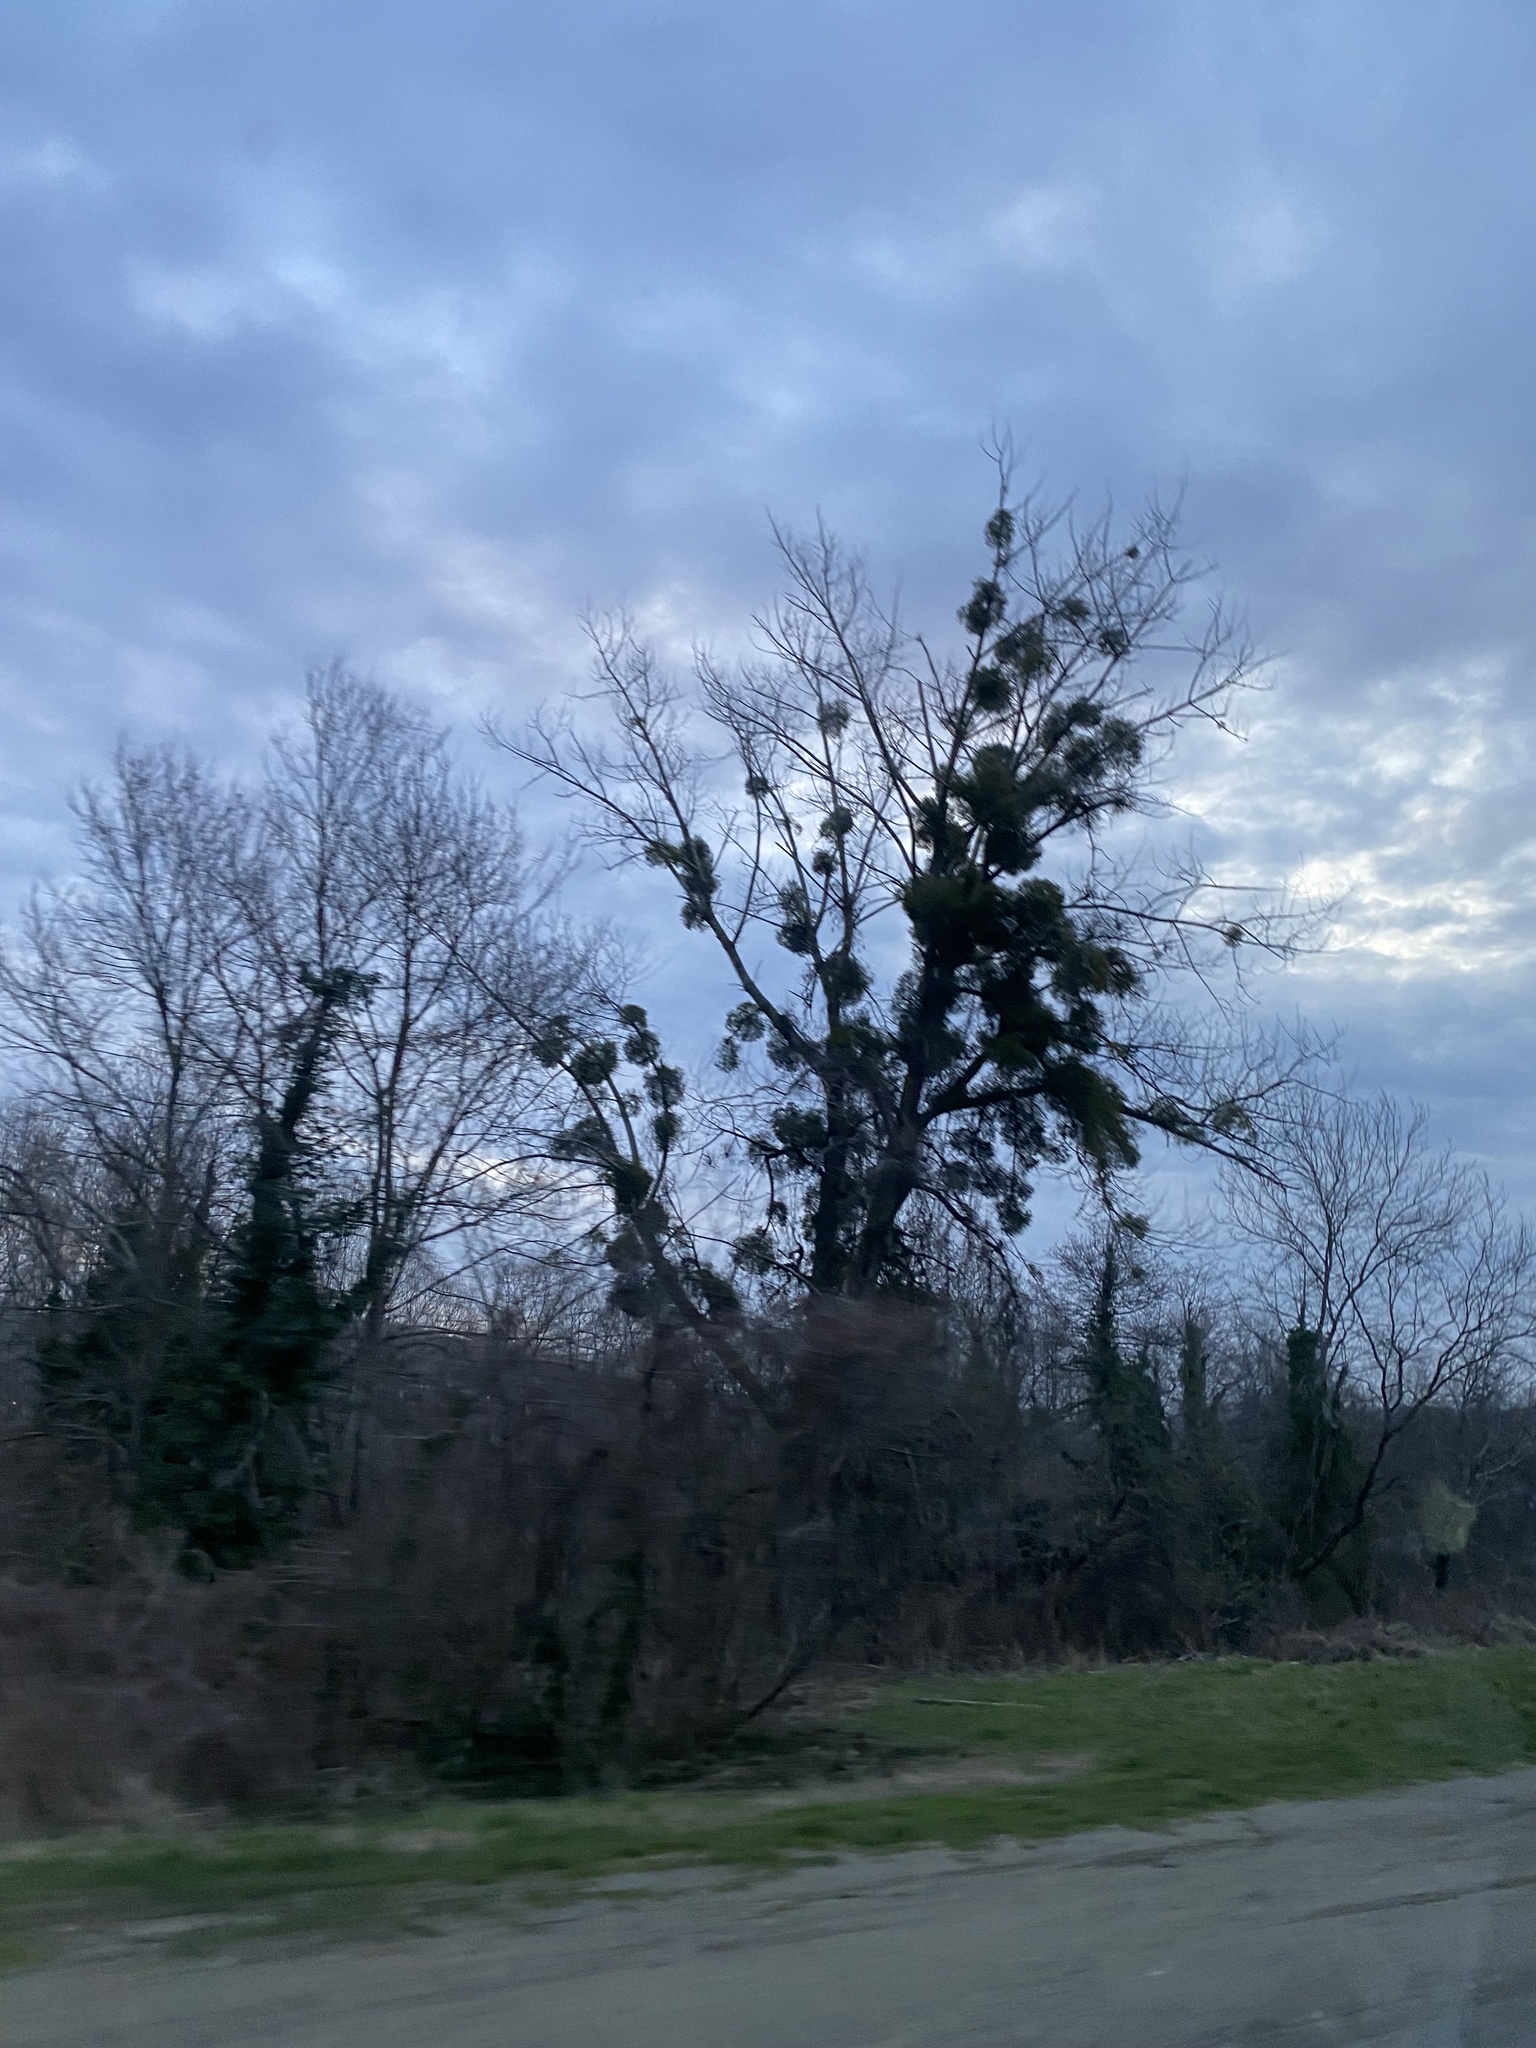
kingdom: Plantae
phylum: Tracheophyta
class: Magnoliopsida
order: Santalales
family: Viscaceae
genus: Viscum
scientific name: Viscum album
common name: Mistletoe
